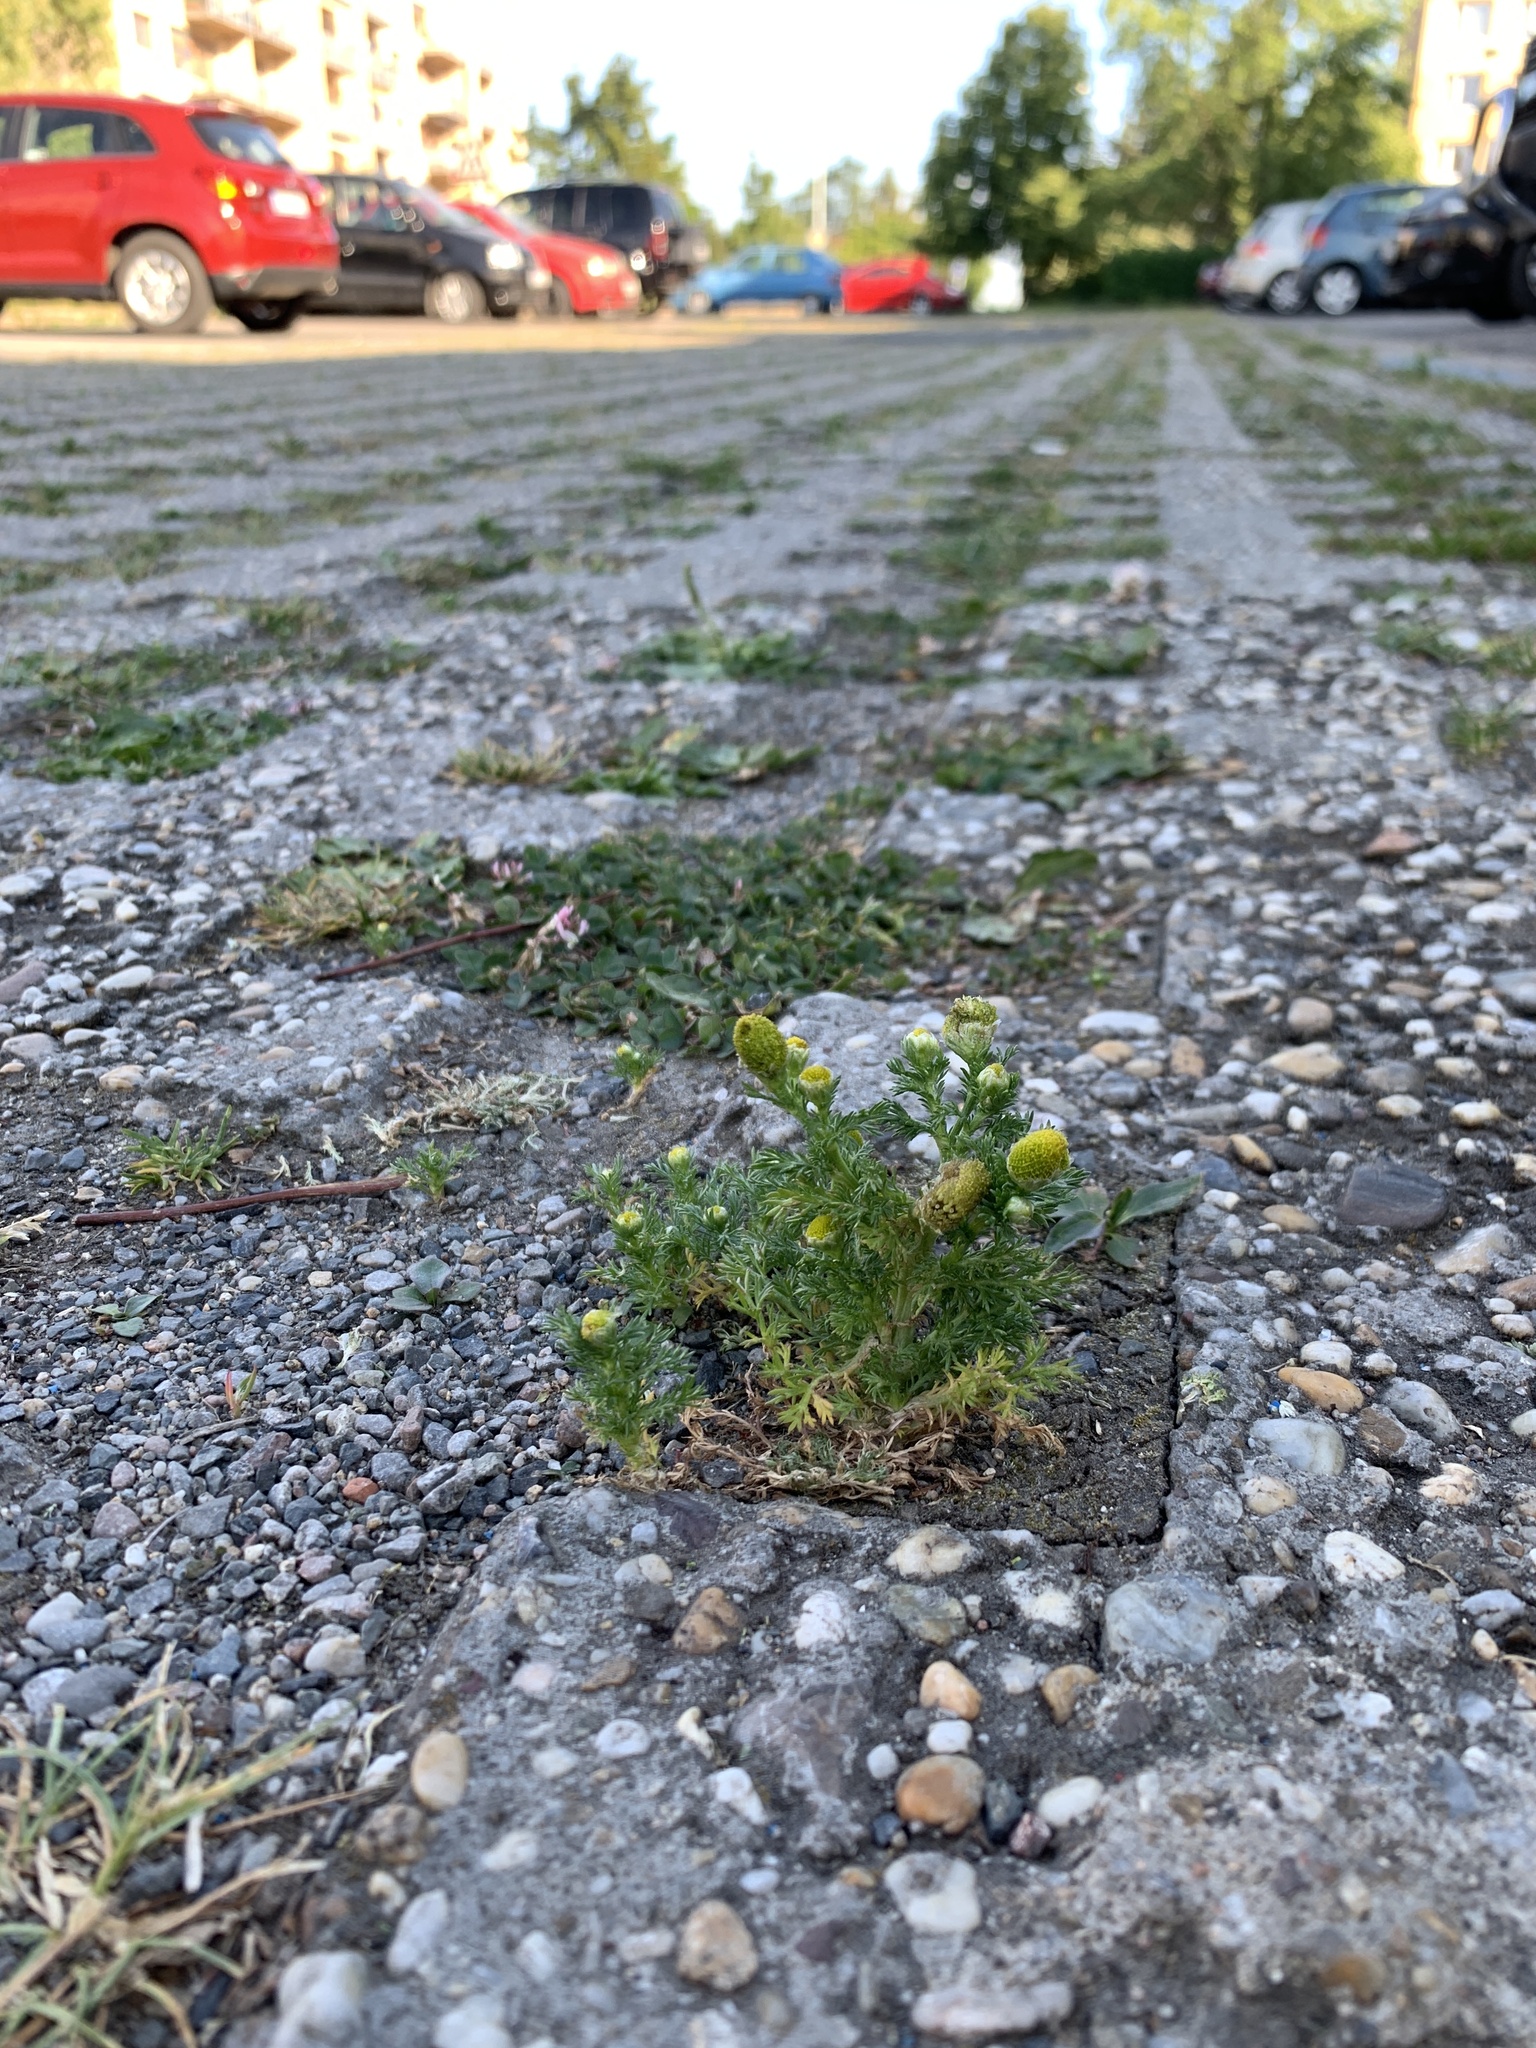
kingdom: Plantae
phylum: Tracheophyta
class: Magnoliopsida
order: Asterales
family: Asteraceae
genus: Matricaria
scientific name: Matricaria discoidea
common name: Disc mayweed
